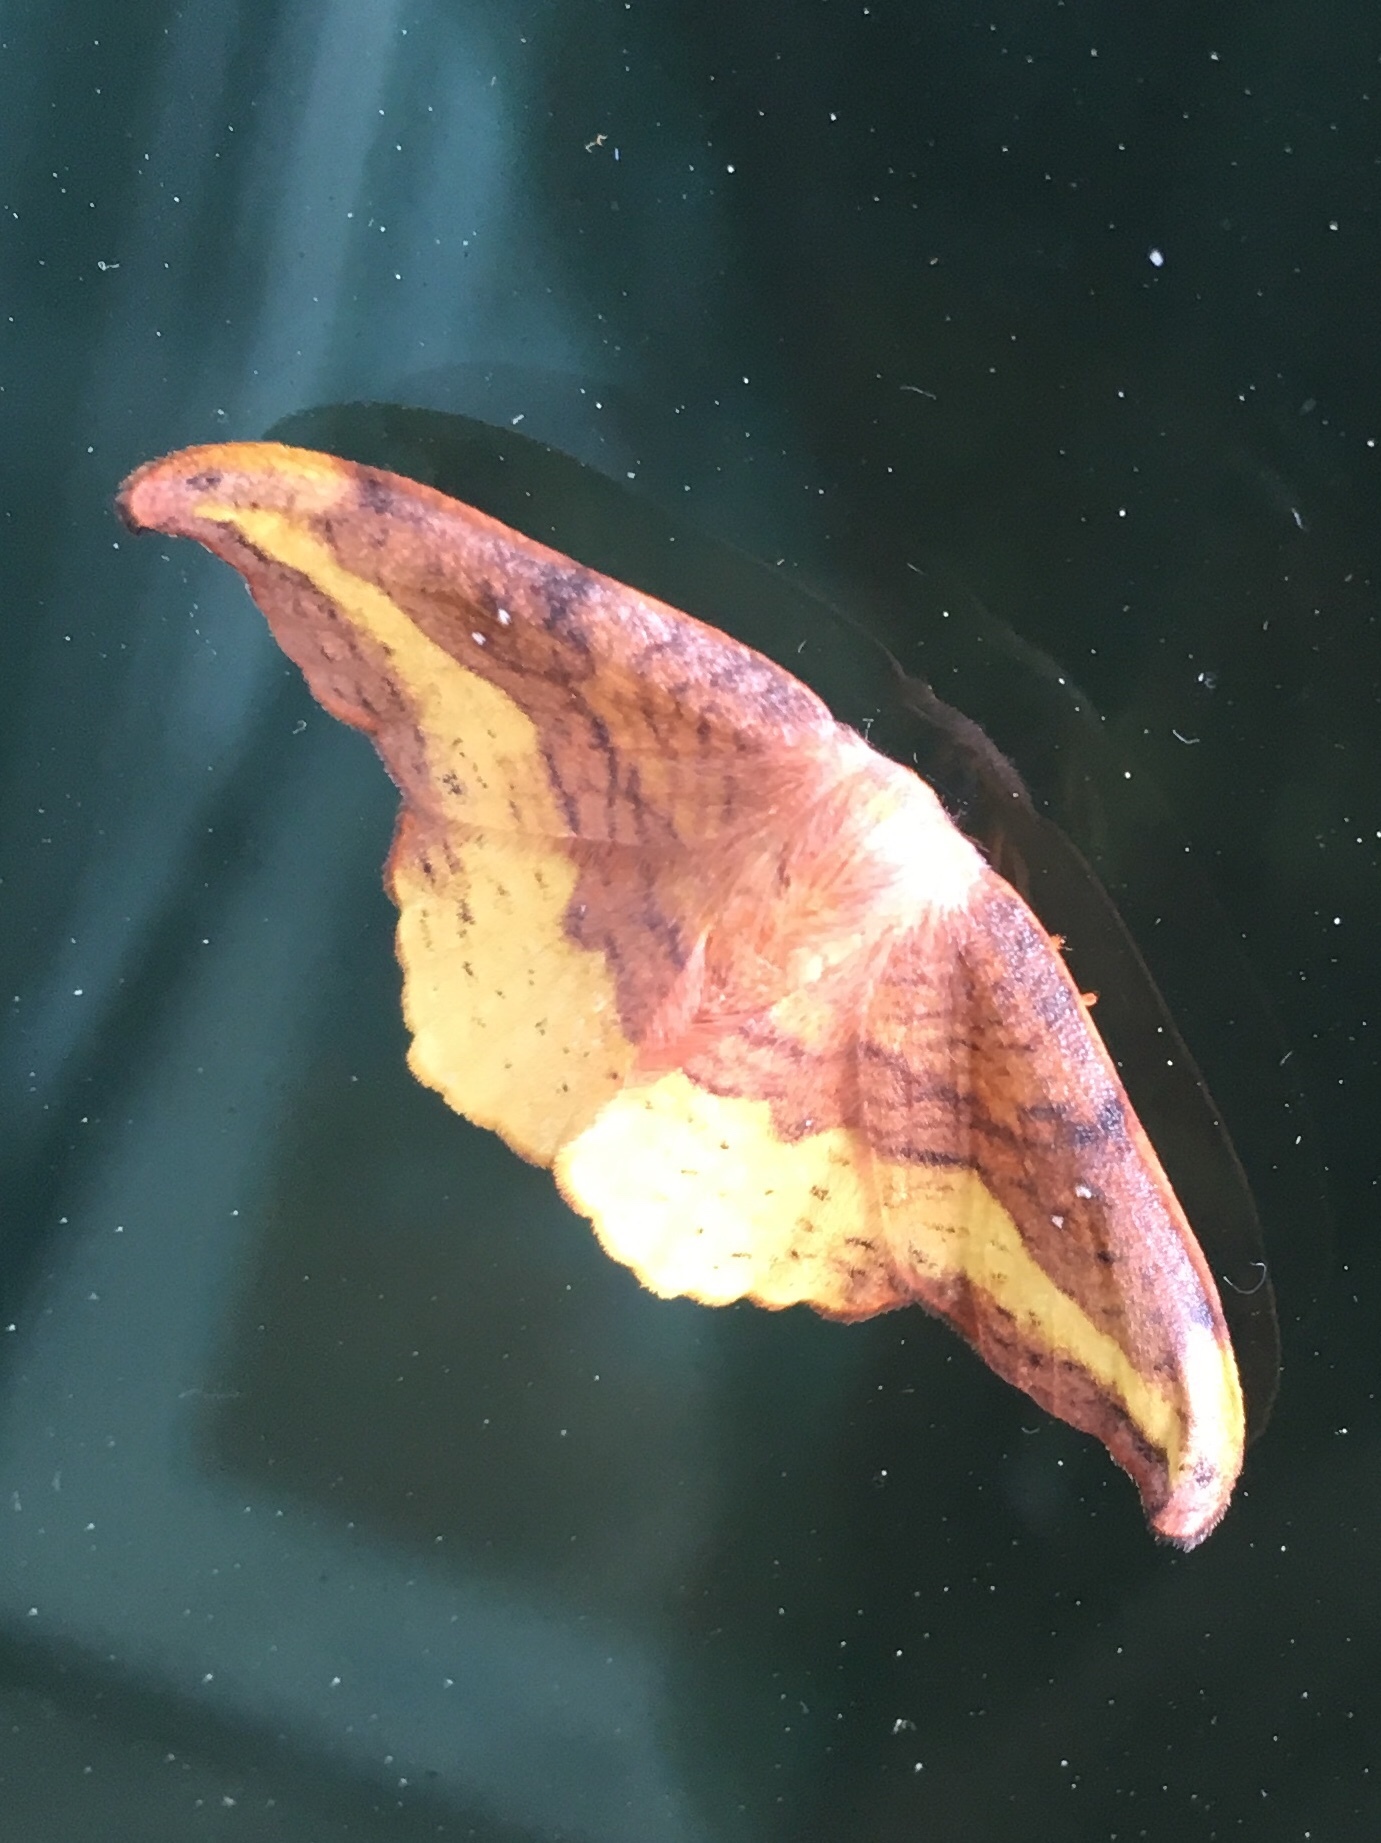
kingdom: Animalia
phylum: Arthropoda
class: Insecta
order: Lepidoptera
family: Drepanidae
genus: Oreta
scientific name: Oreta rosea
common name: Rose hooktip
